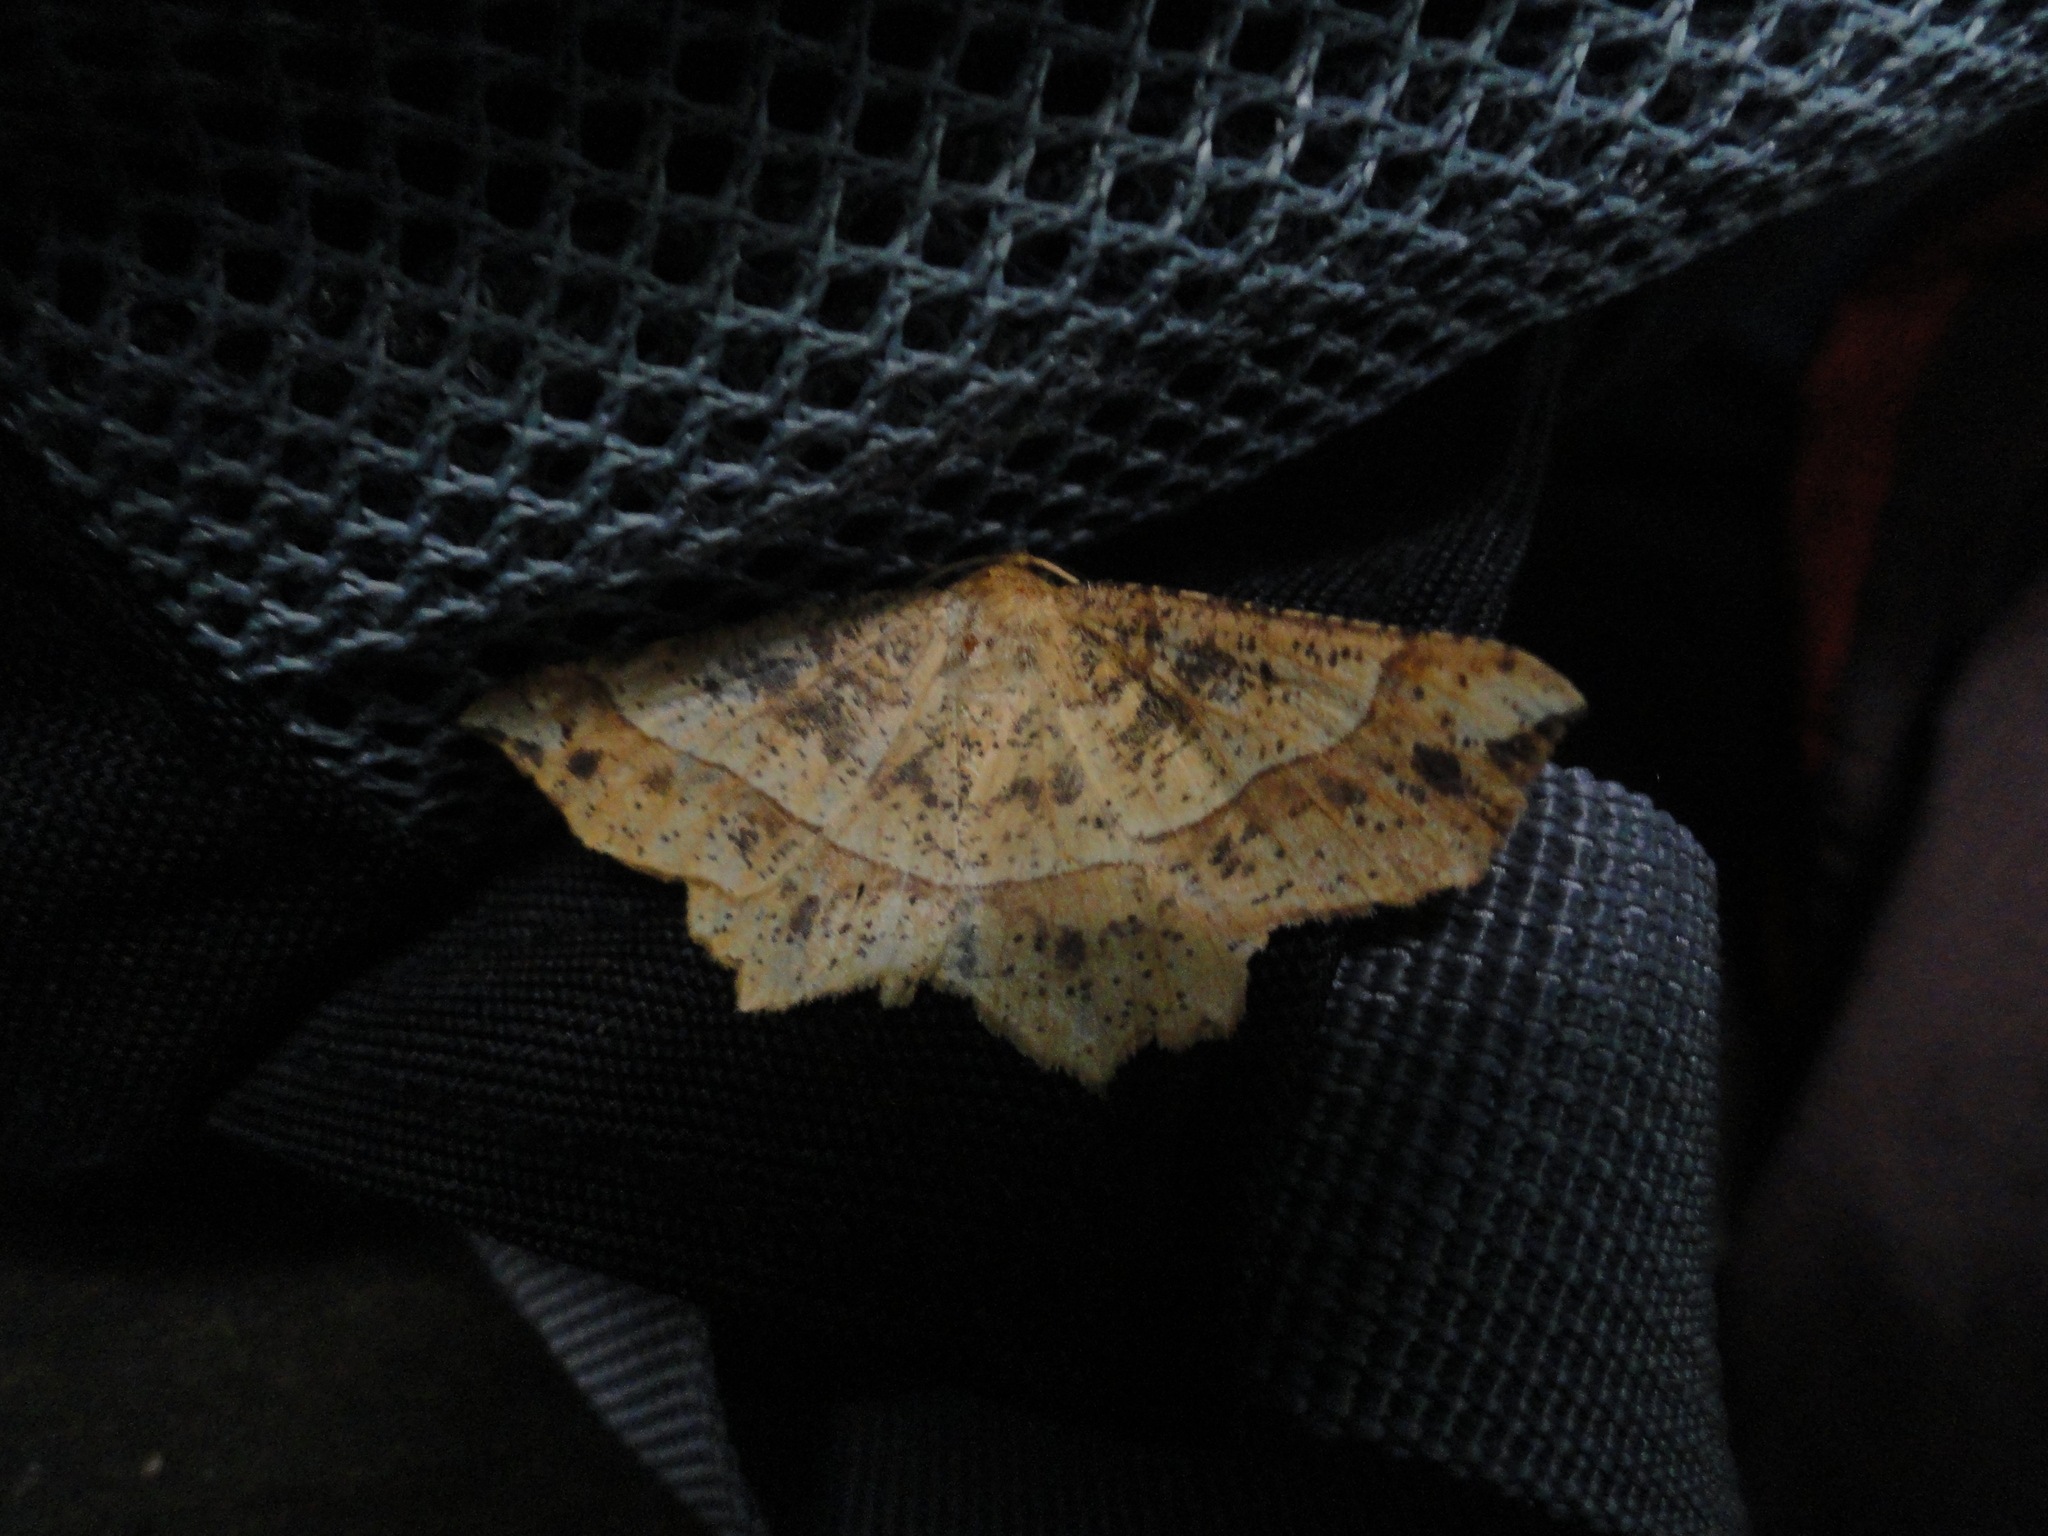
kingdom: Animalia
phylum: Arthropoda
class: Insecta
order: Lepidoptera
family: Geometridae
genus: Euchlaena
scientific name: Euchlaena tigrinaria
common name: Mottled euchlaena moth
